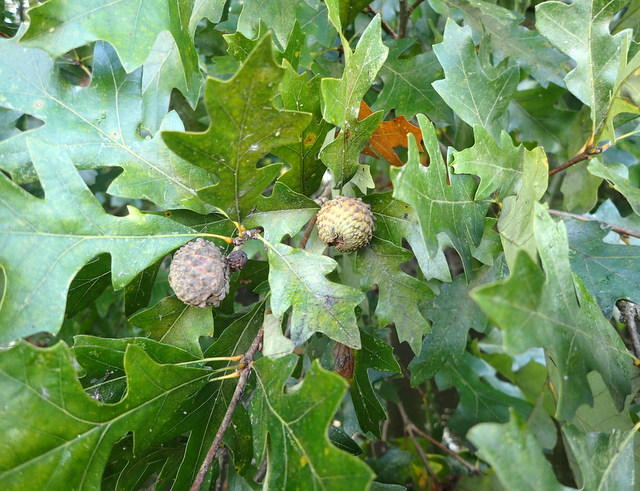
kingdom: Plantae
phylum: Tracheophyta
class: Magnoliopsida
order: Fagales
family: Fagaceae
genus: Quercus
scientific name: Quercus lyrata
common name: Overcup oak
